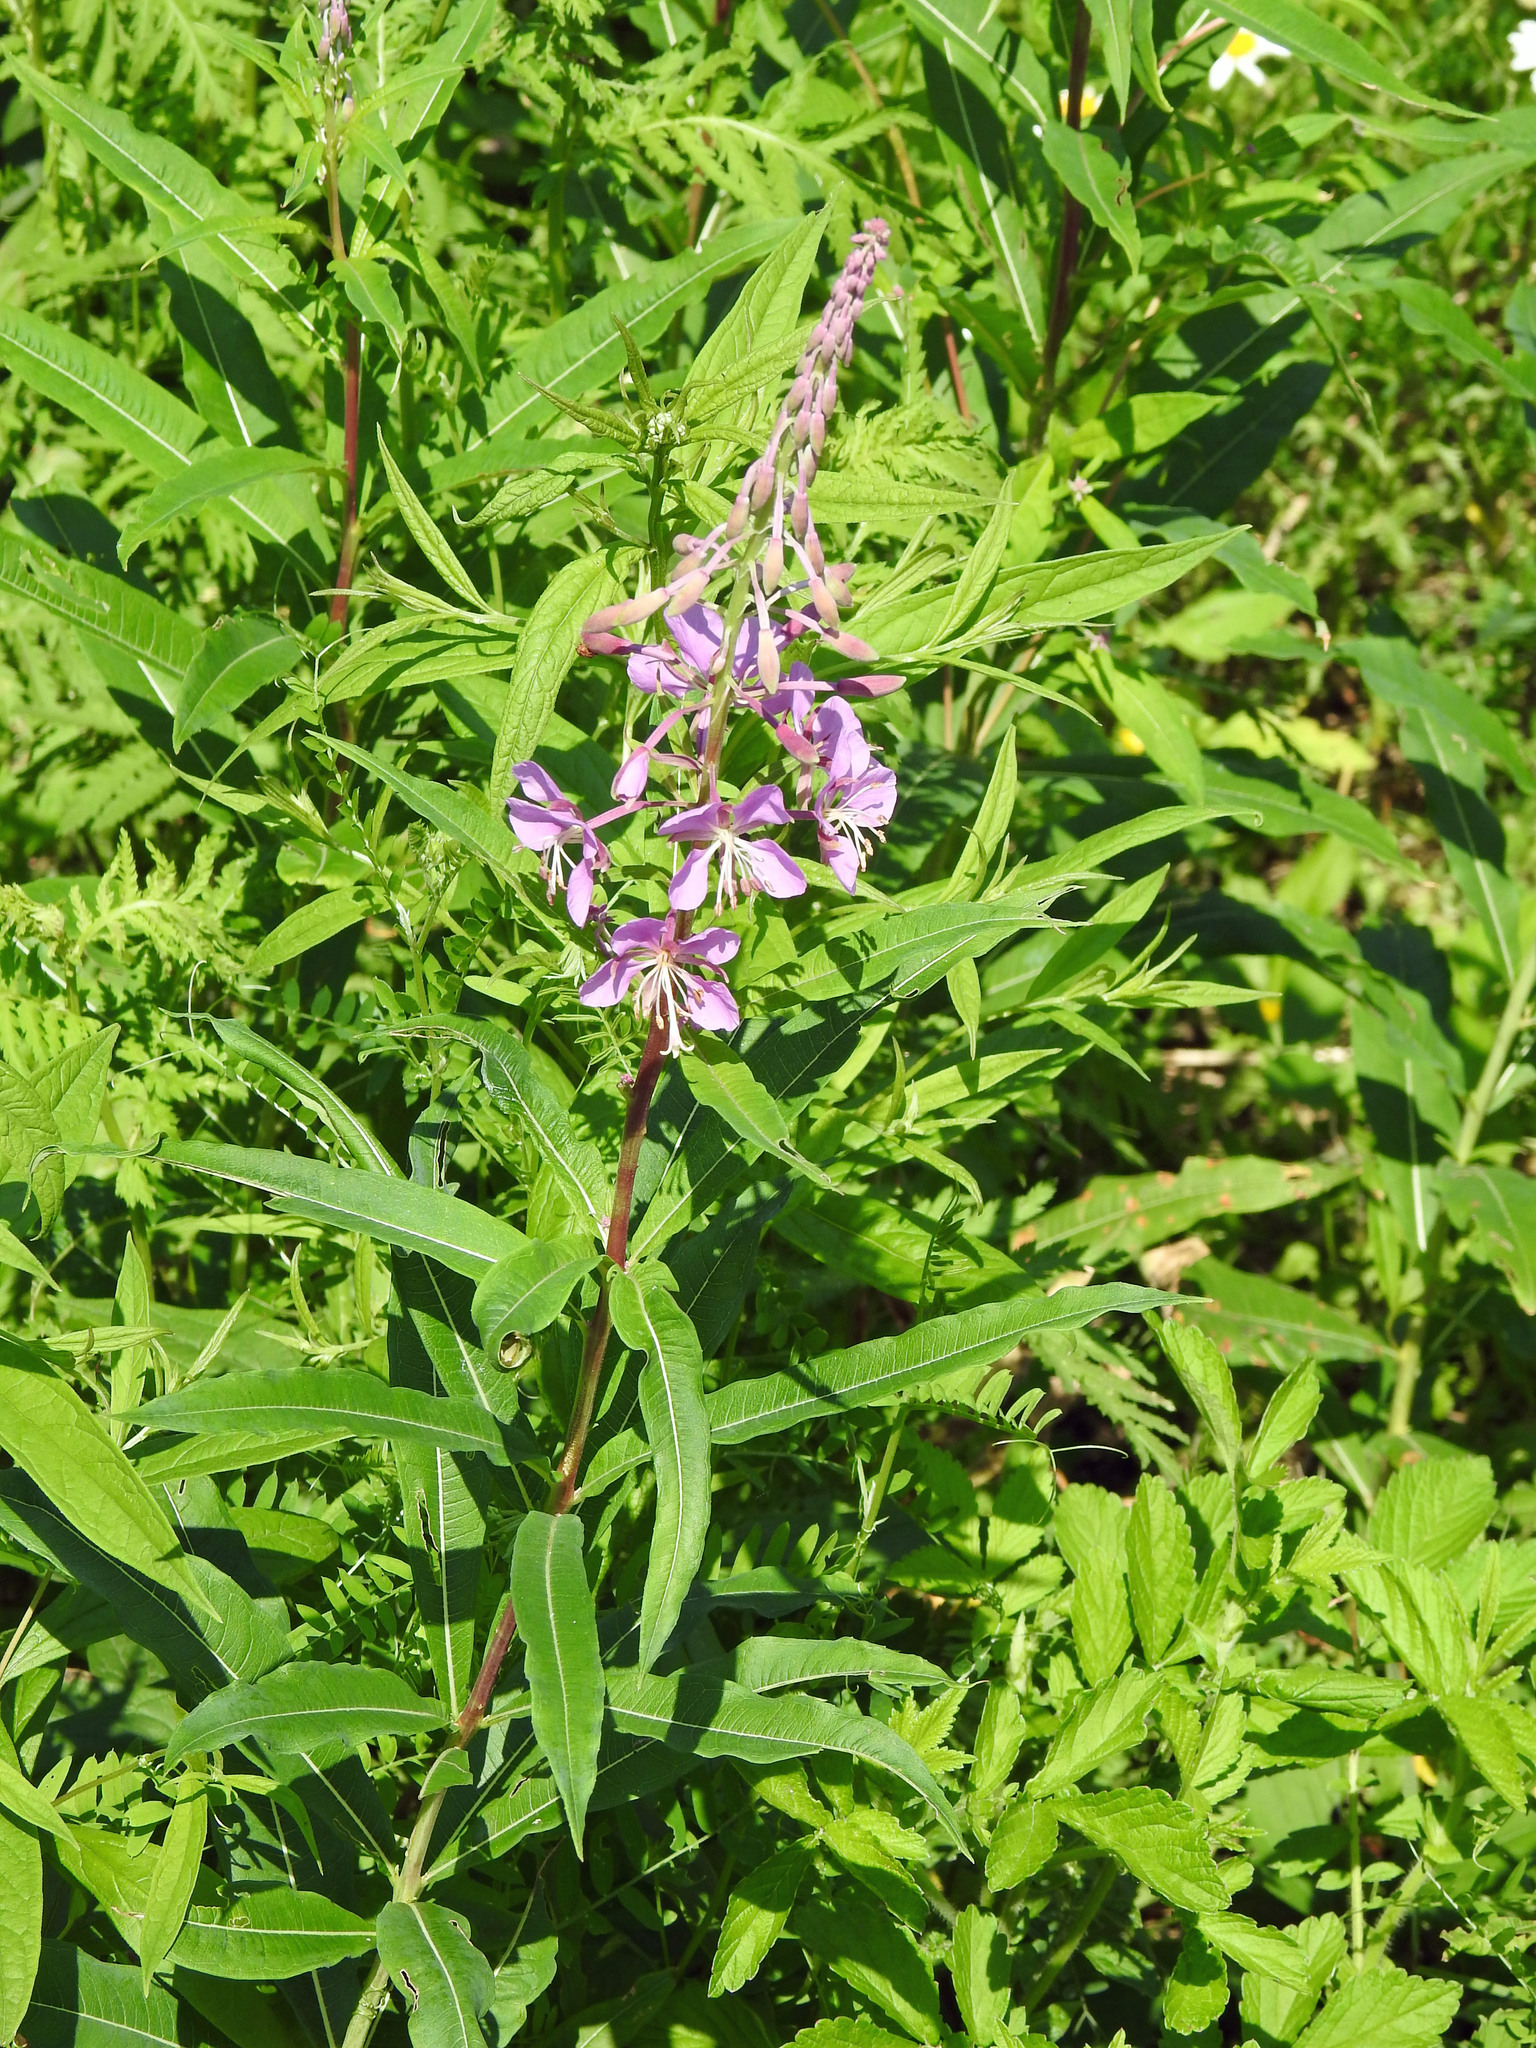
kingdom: Plantae
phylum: Tracheophyta
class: Magnoliopsida
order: Myrtales
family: Onagraceae
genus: Chamaenerion
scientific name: Chamaenerion angustifolium
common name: Fireweed
